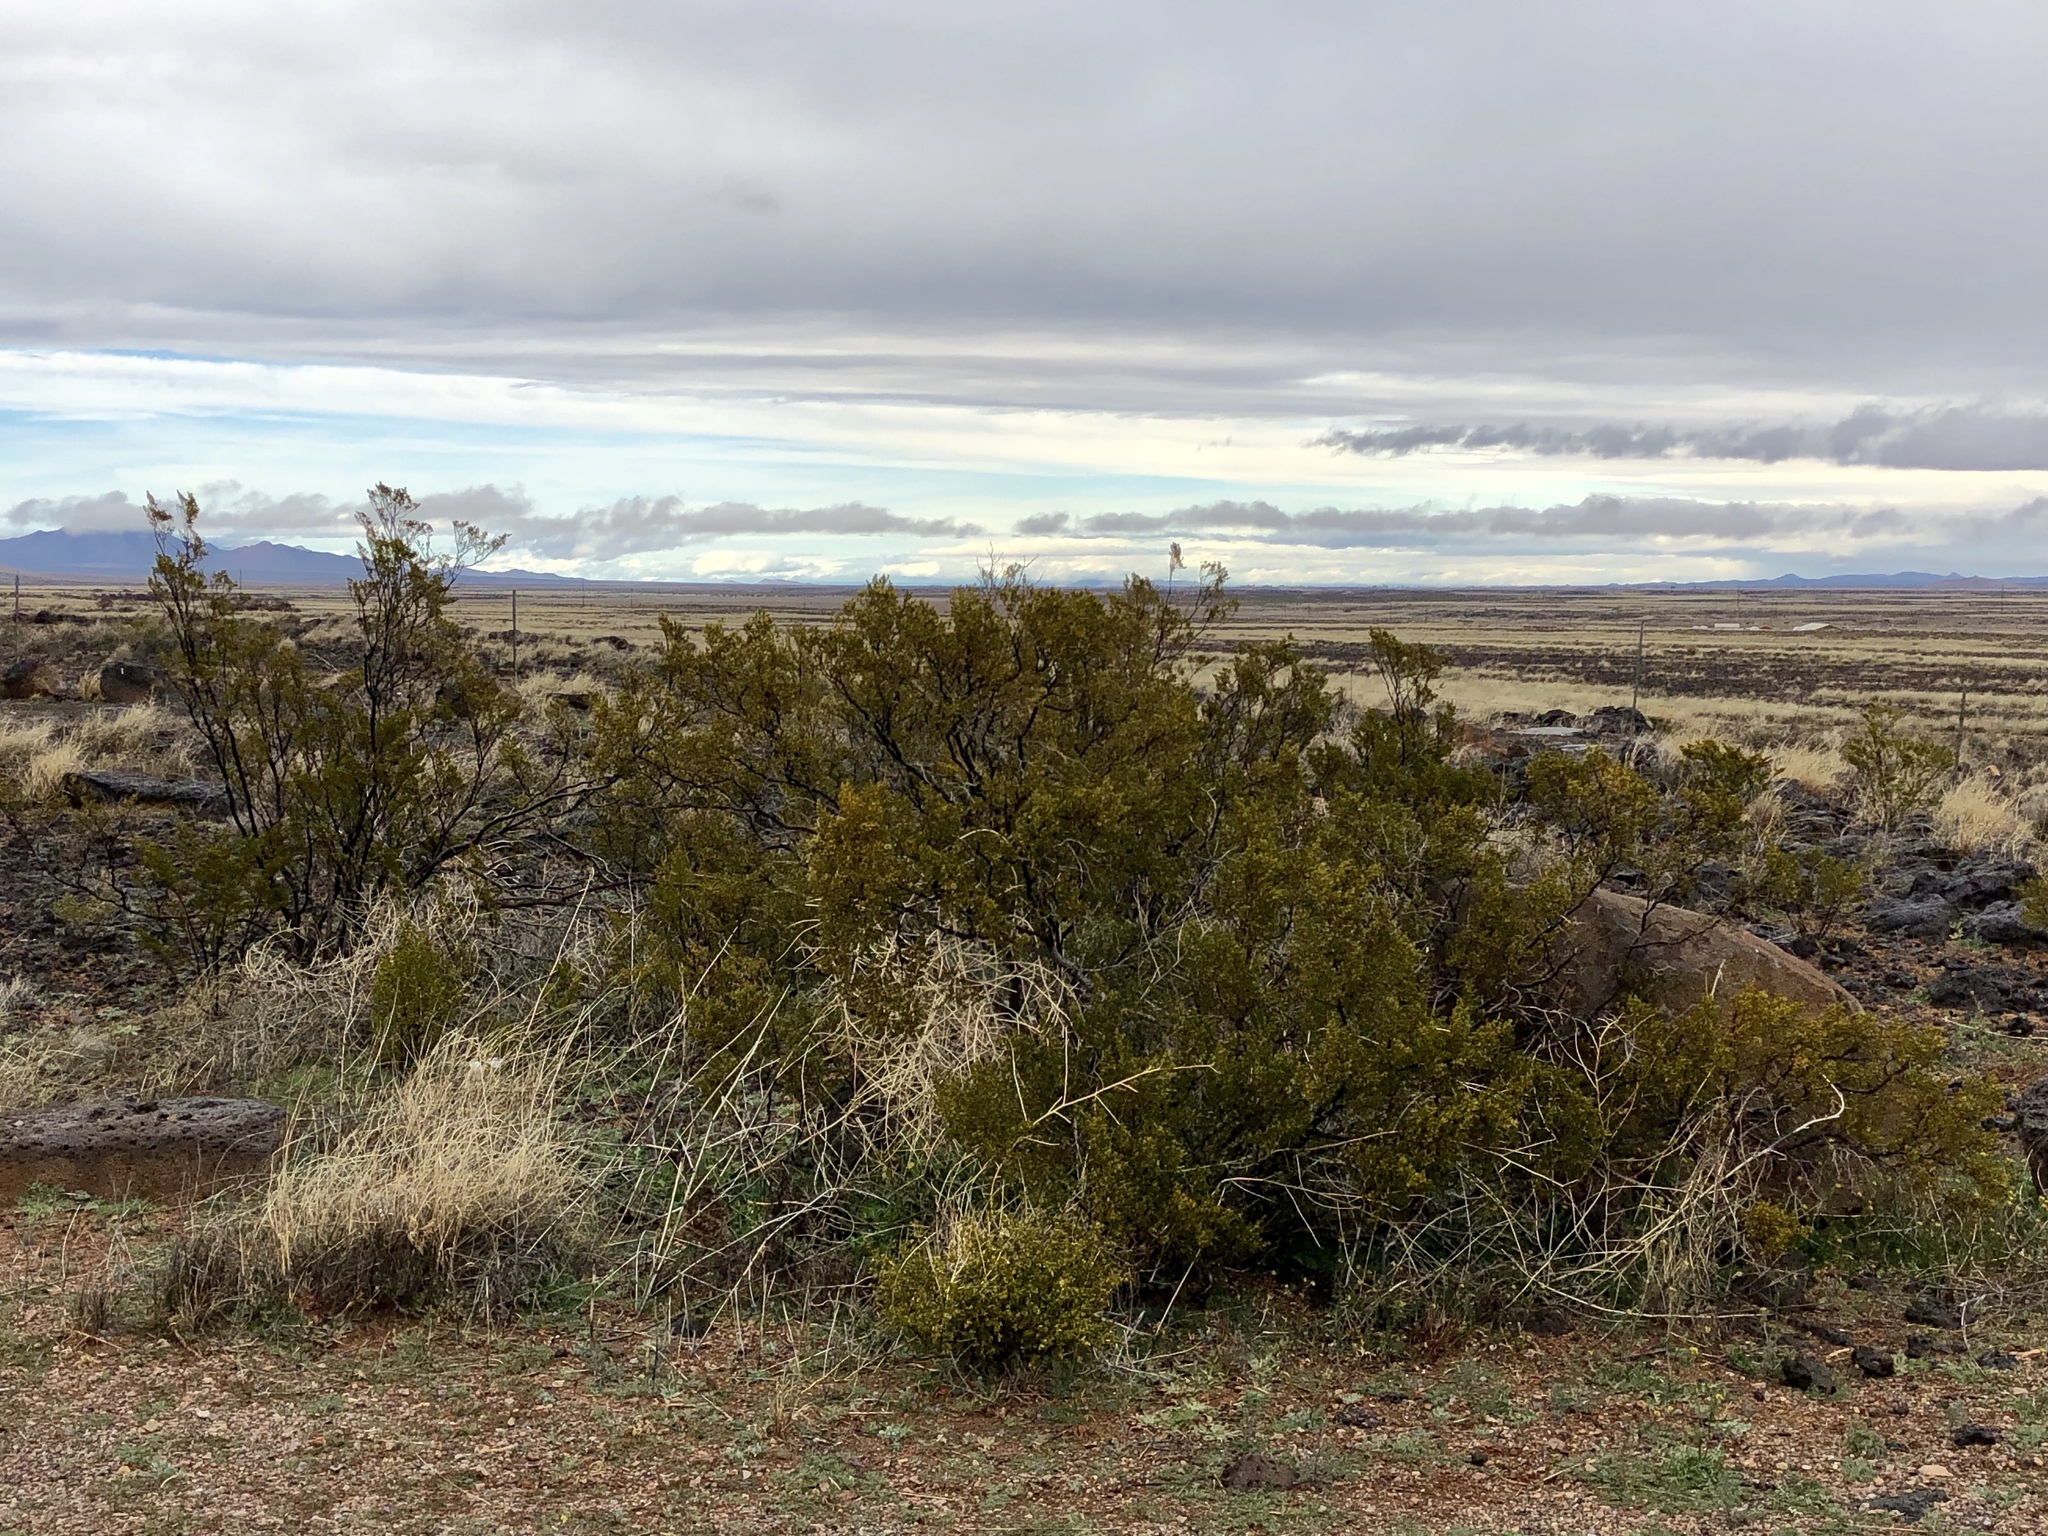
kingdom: Plantae
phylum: Tracheophyta
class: Magnoliopsida
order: Zygophyllales
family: Zygophyllaceae
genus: Larrea
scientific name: Larrea tridentata
